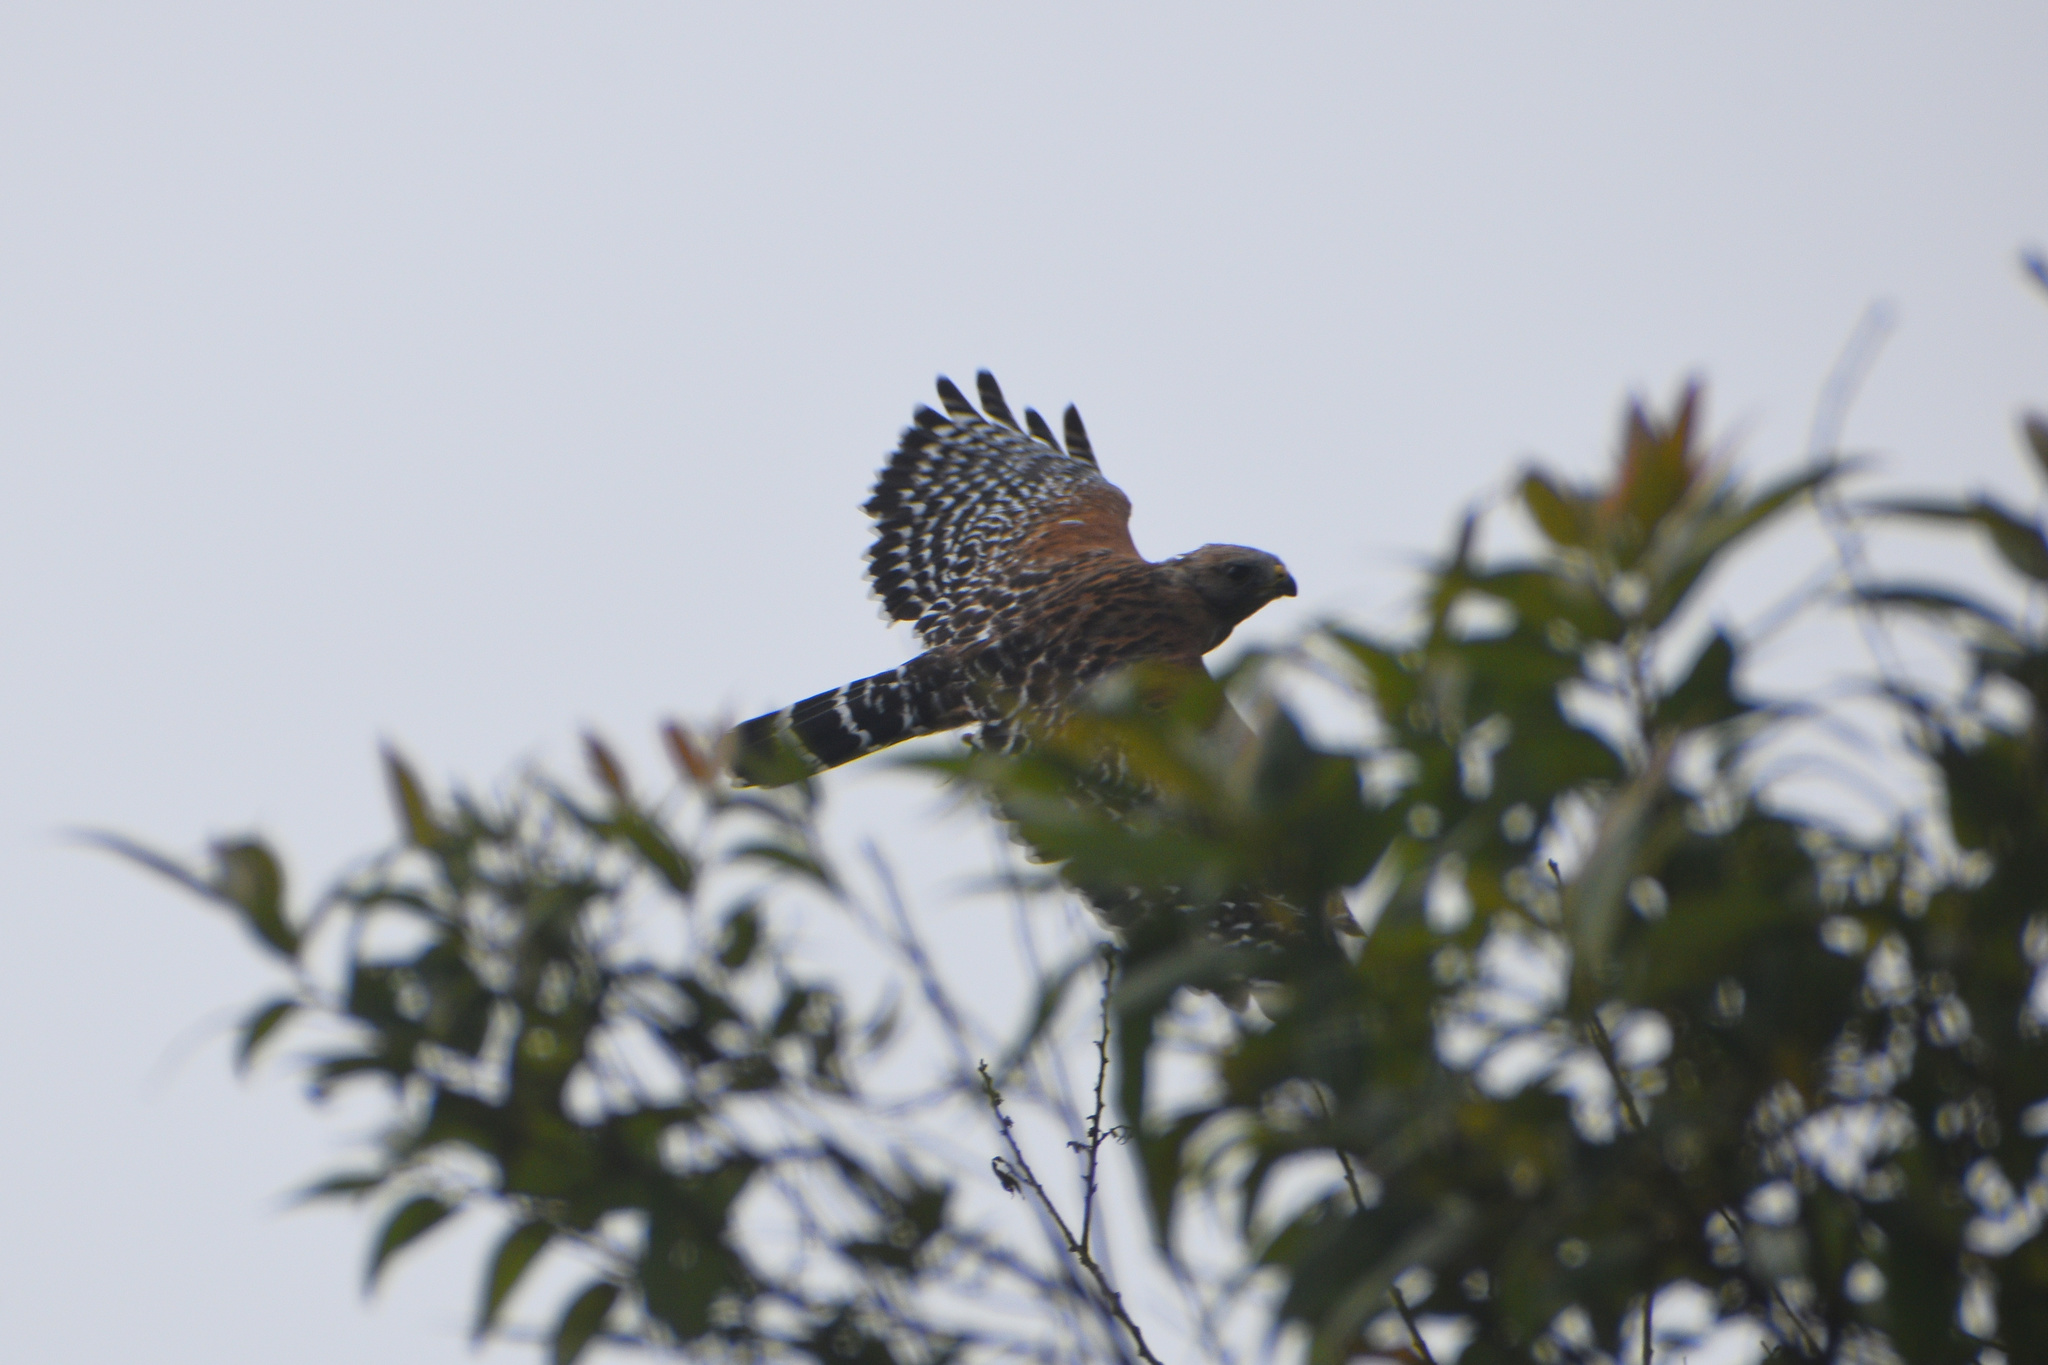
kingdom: Animalia
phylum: Chordata
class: Aves
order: Accipitriformes
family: Accipitridae
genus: Buteo
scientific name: Buteo lineatus
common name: Red-shouldered hawk
